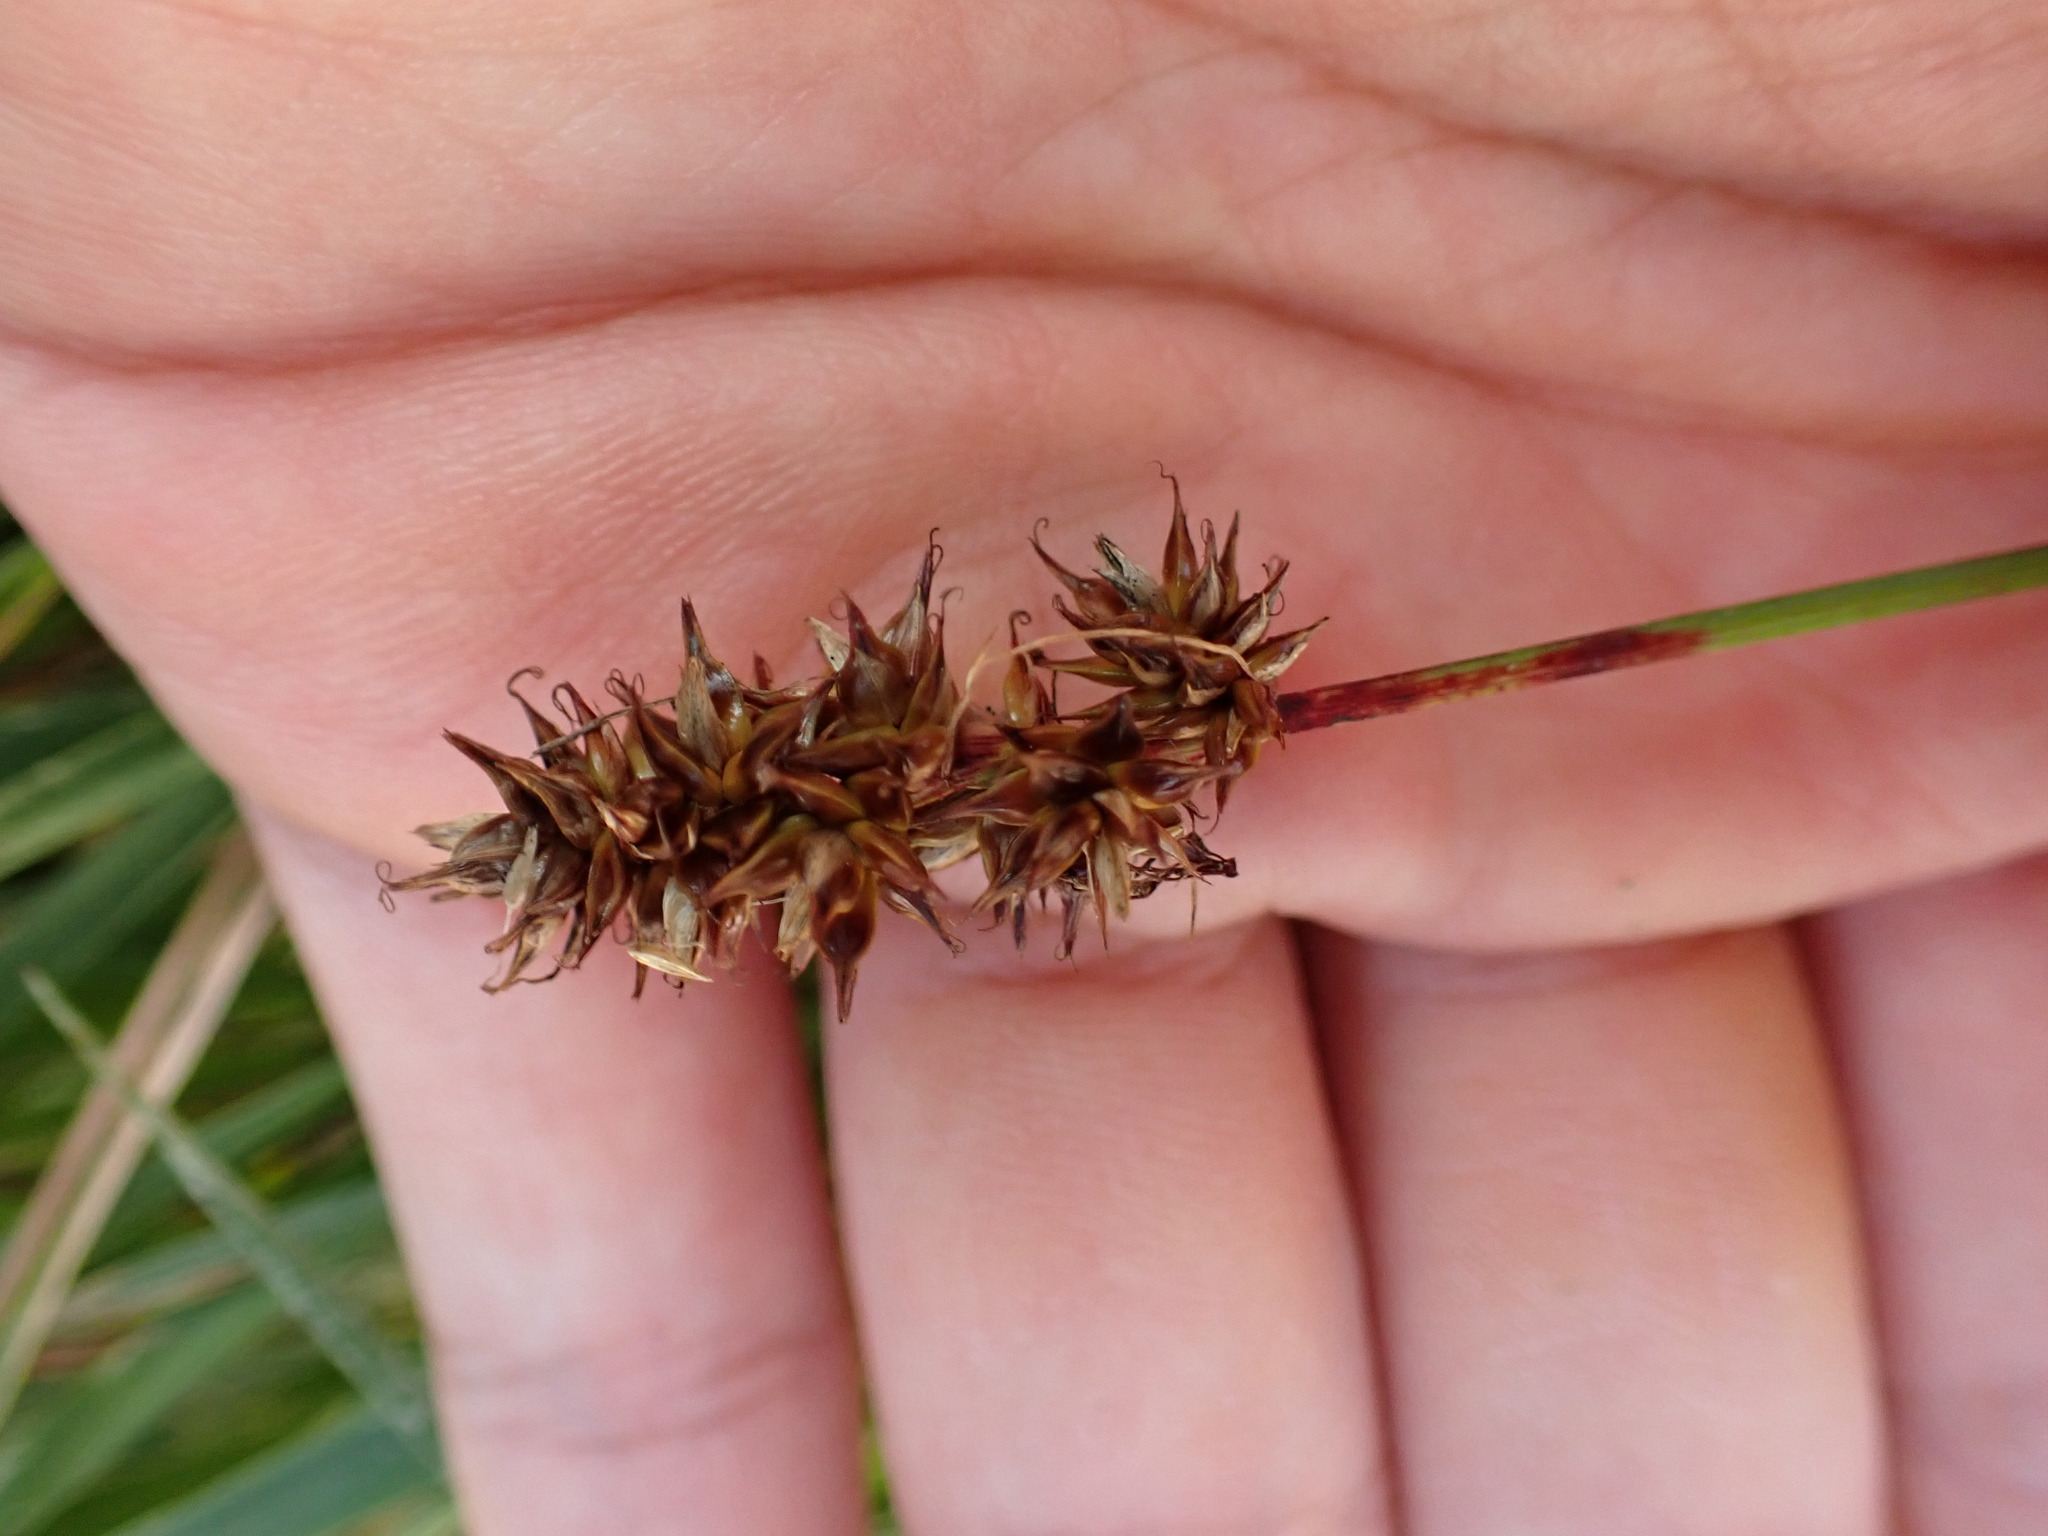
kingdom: Plantae
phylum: Tracheophyta
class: Liliopsida
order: Poales
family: Cyperaceae
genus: Carex
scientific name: Carex spicata
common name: Spiked sedge
